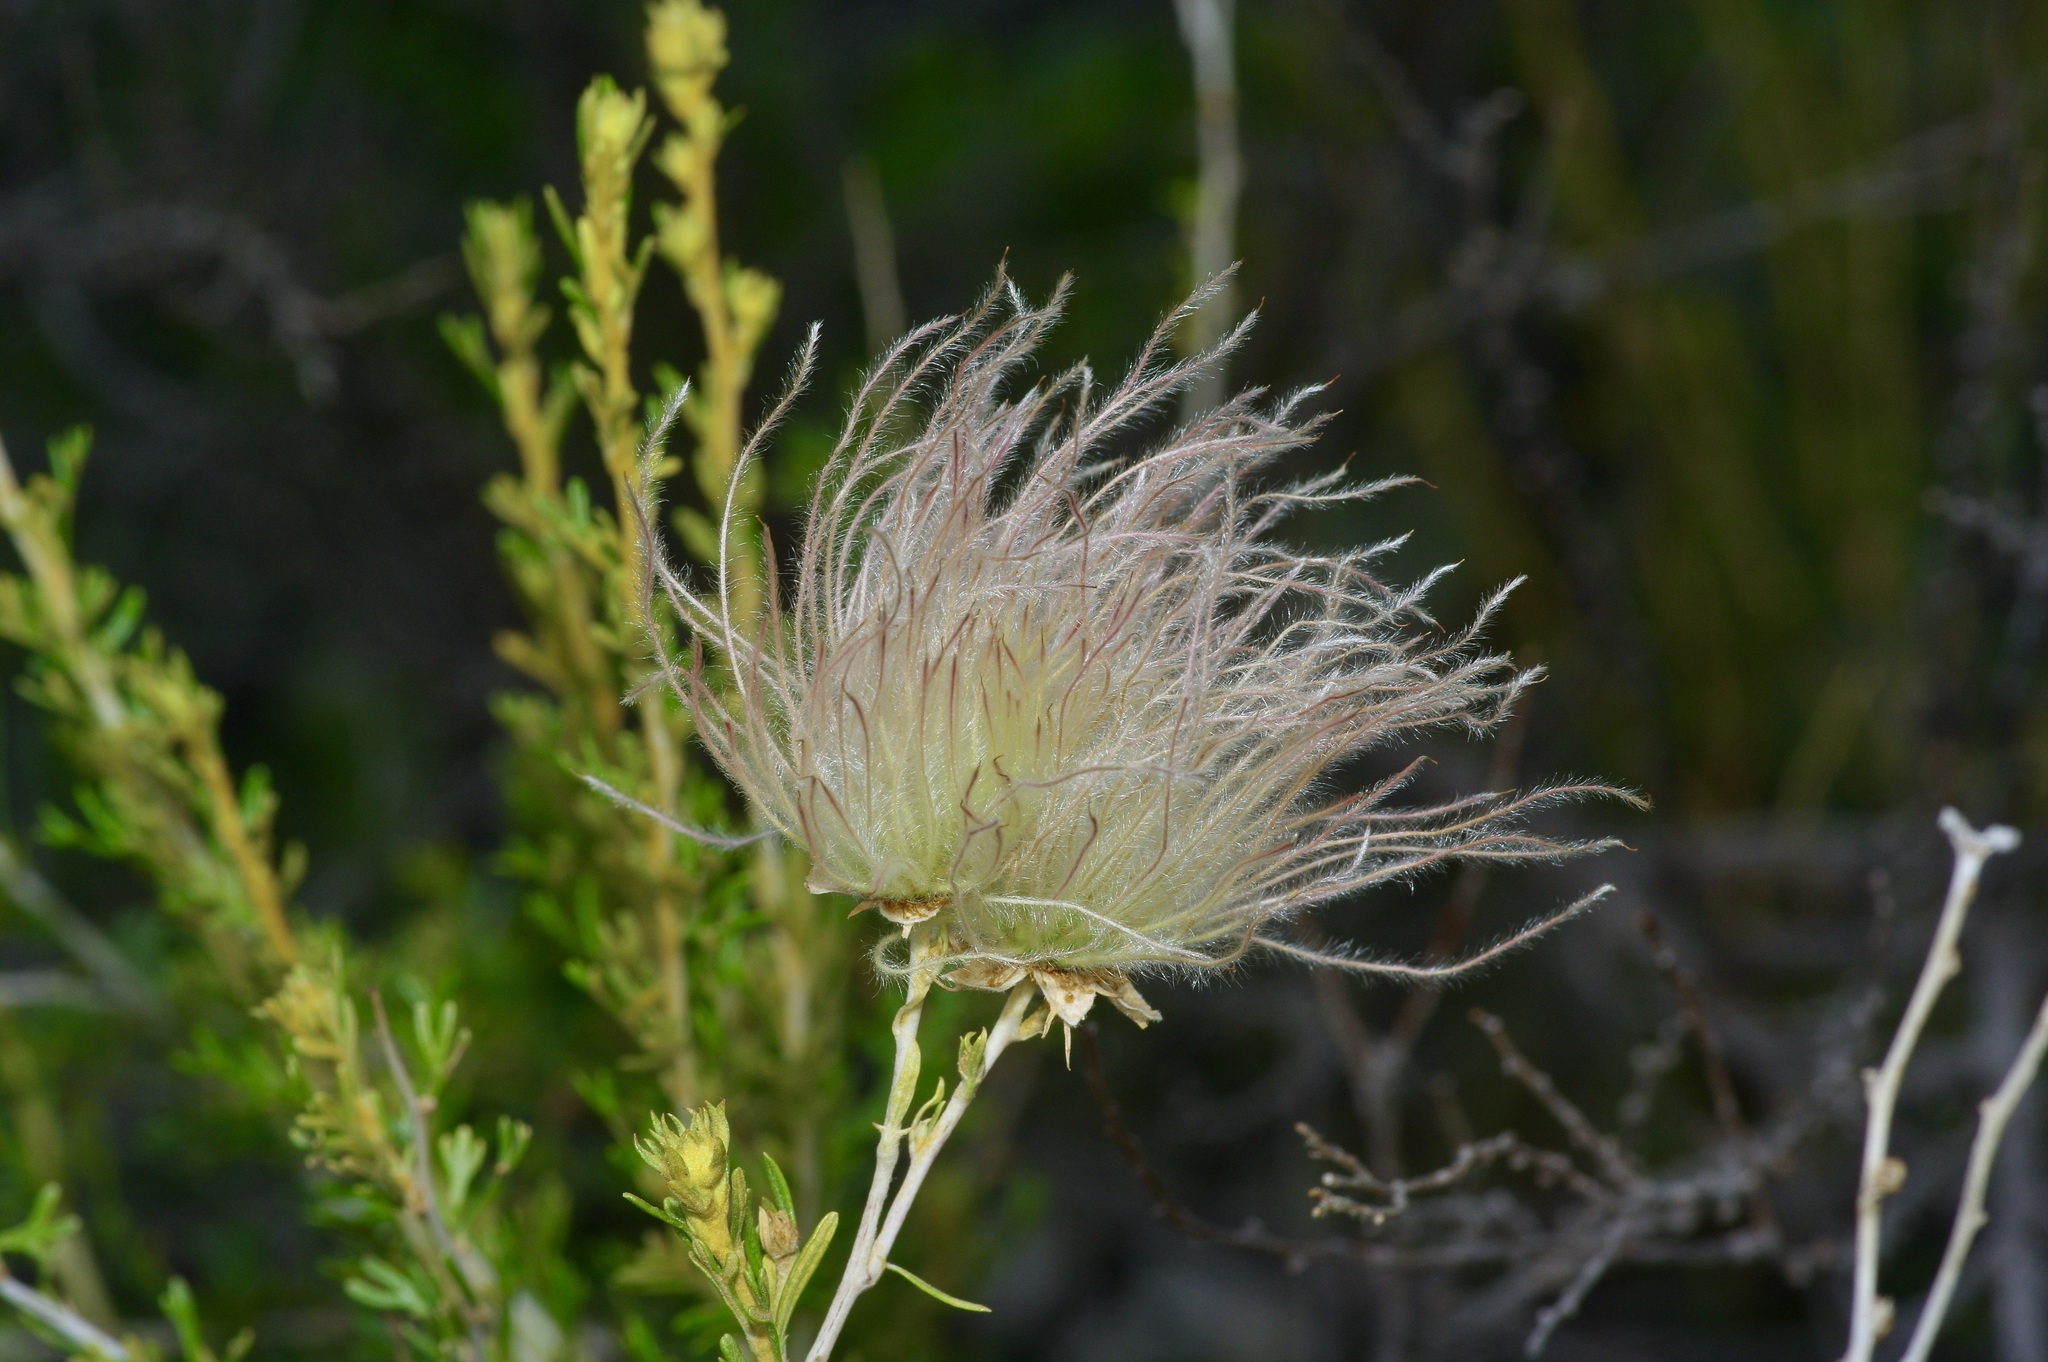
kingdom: Plantae
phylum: Tracheophyta
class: Magnoliopsida
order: Rosales
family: Rosaceae
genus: Fallugia
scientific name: Fallugia paradoxa
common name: Apache-plume
